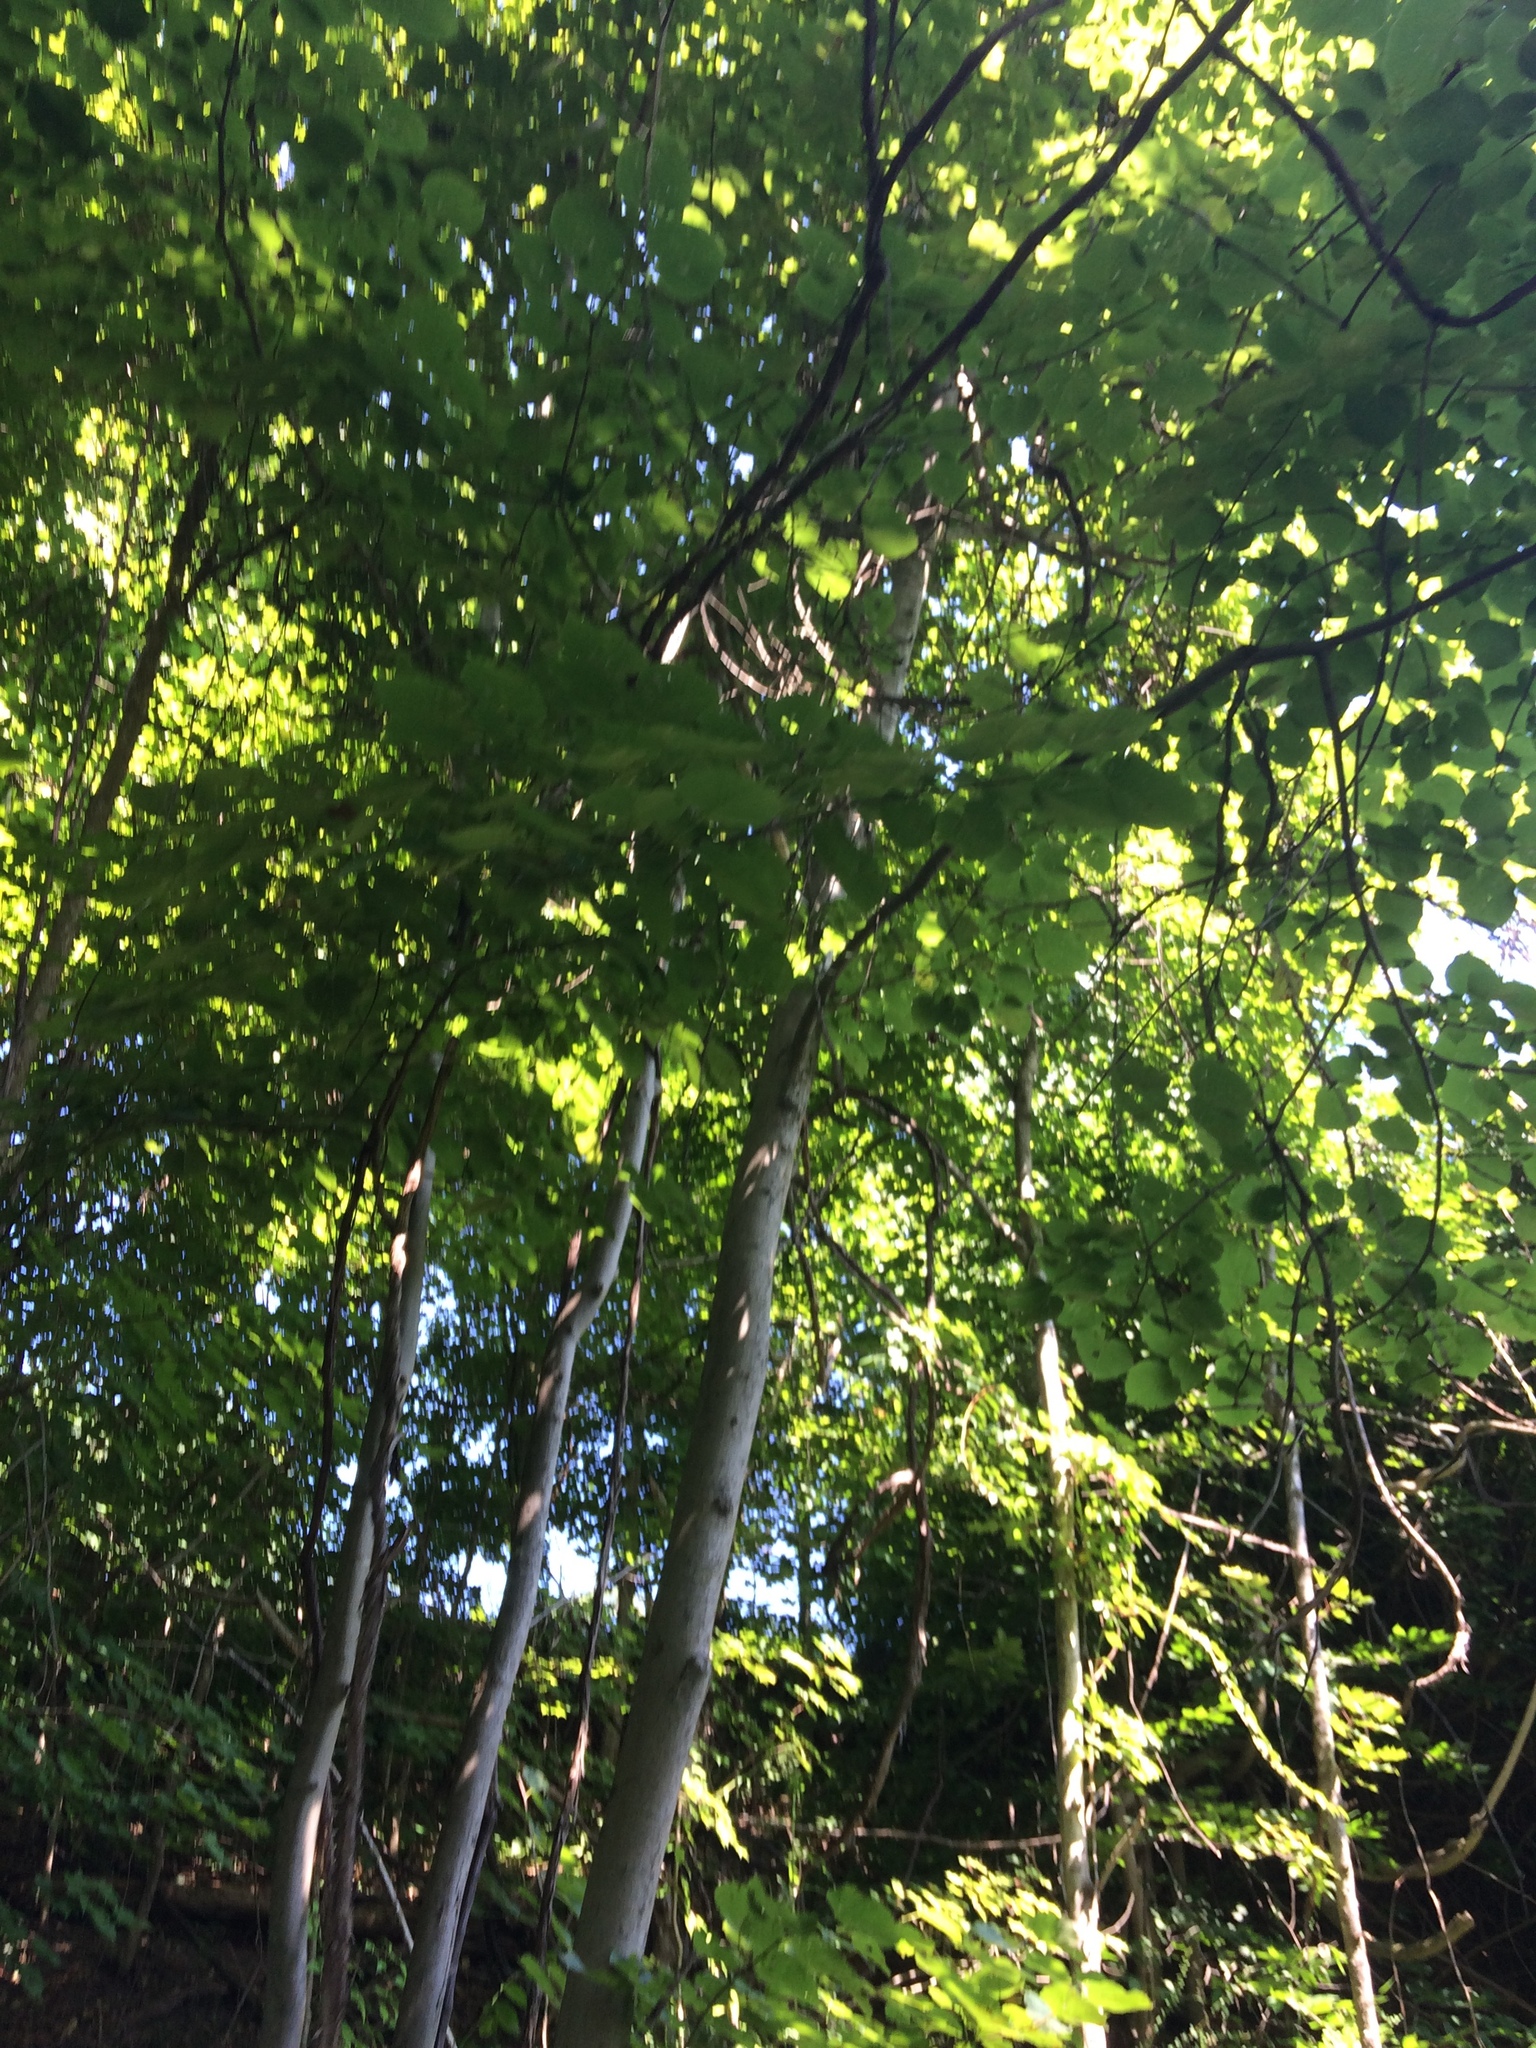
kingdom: Plantae
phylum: Tracheophyta
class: Magnoliopsida
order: Malvales
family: Malvaceae
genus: Tilia
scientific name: Tilia americana
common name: Basswood
